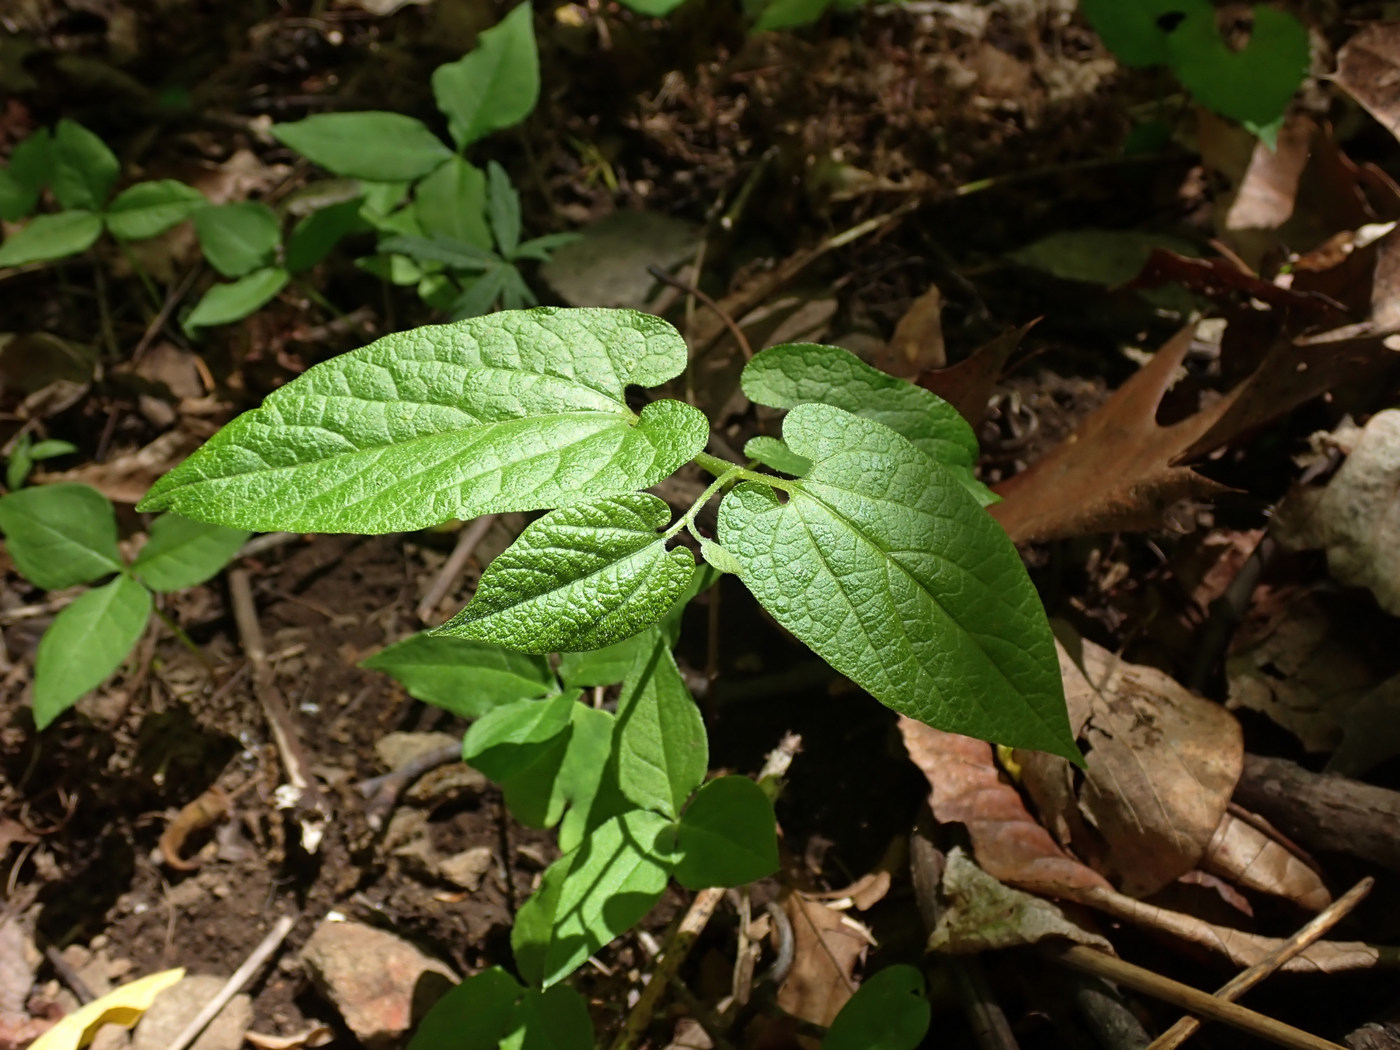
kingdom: Plantae
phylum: Tracheophyta
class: Magnoliopsida
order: Piperales
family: Aristolochiaceae
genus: Endodeca
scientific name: Endodeca serpentaria
